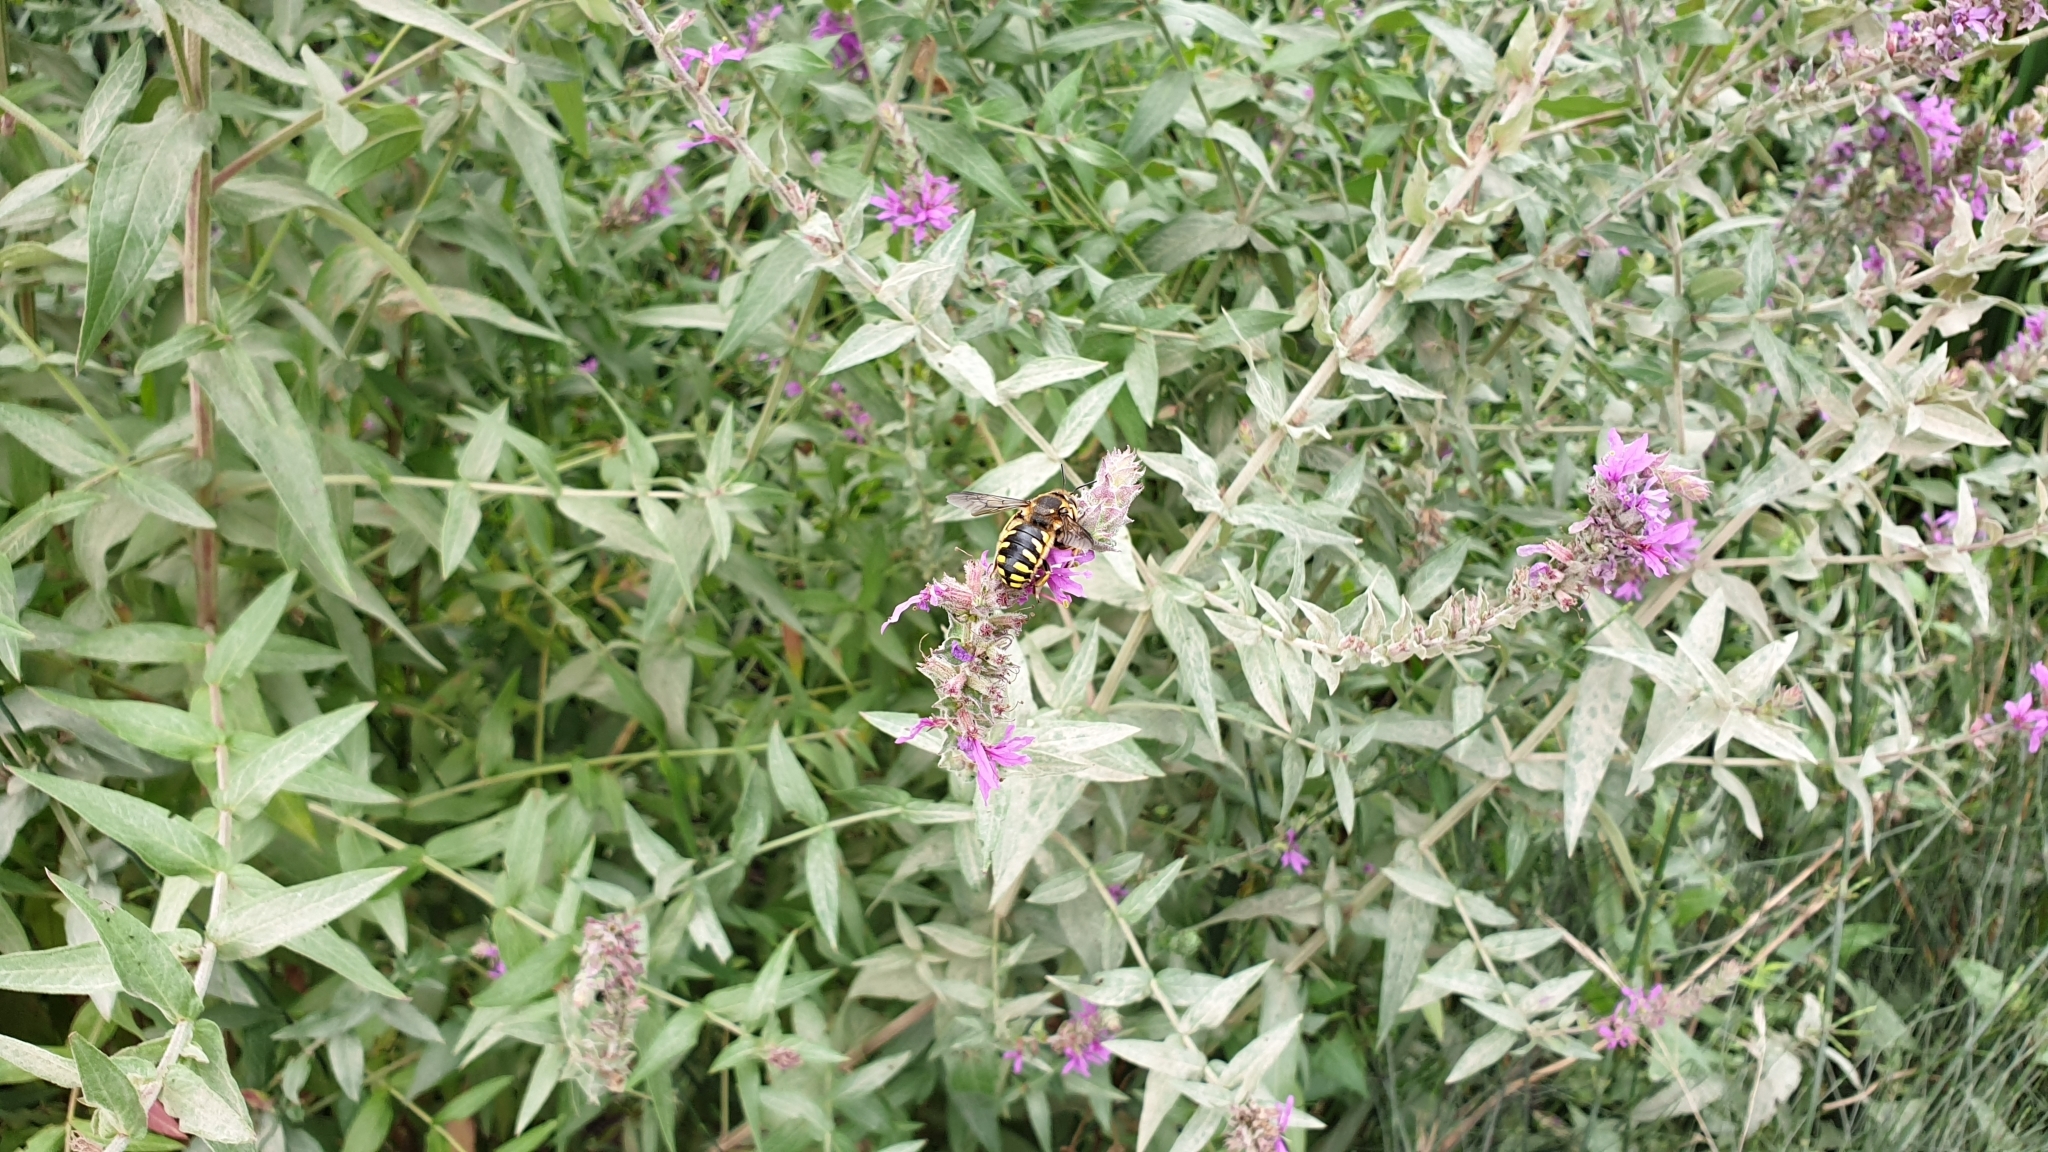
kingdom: Animalia
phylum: Arthropoda
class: Insecta
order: Hymenoptera
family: Megachilidae
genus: Anthidium
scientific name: Anthidium florentinum
